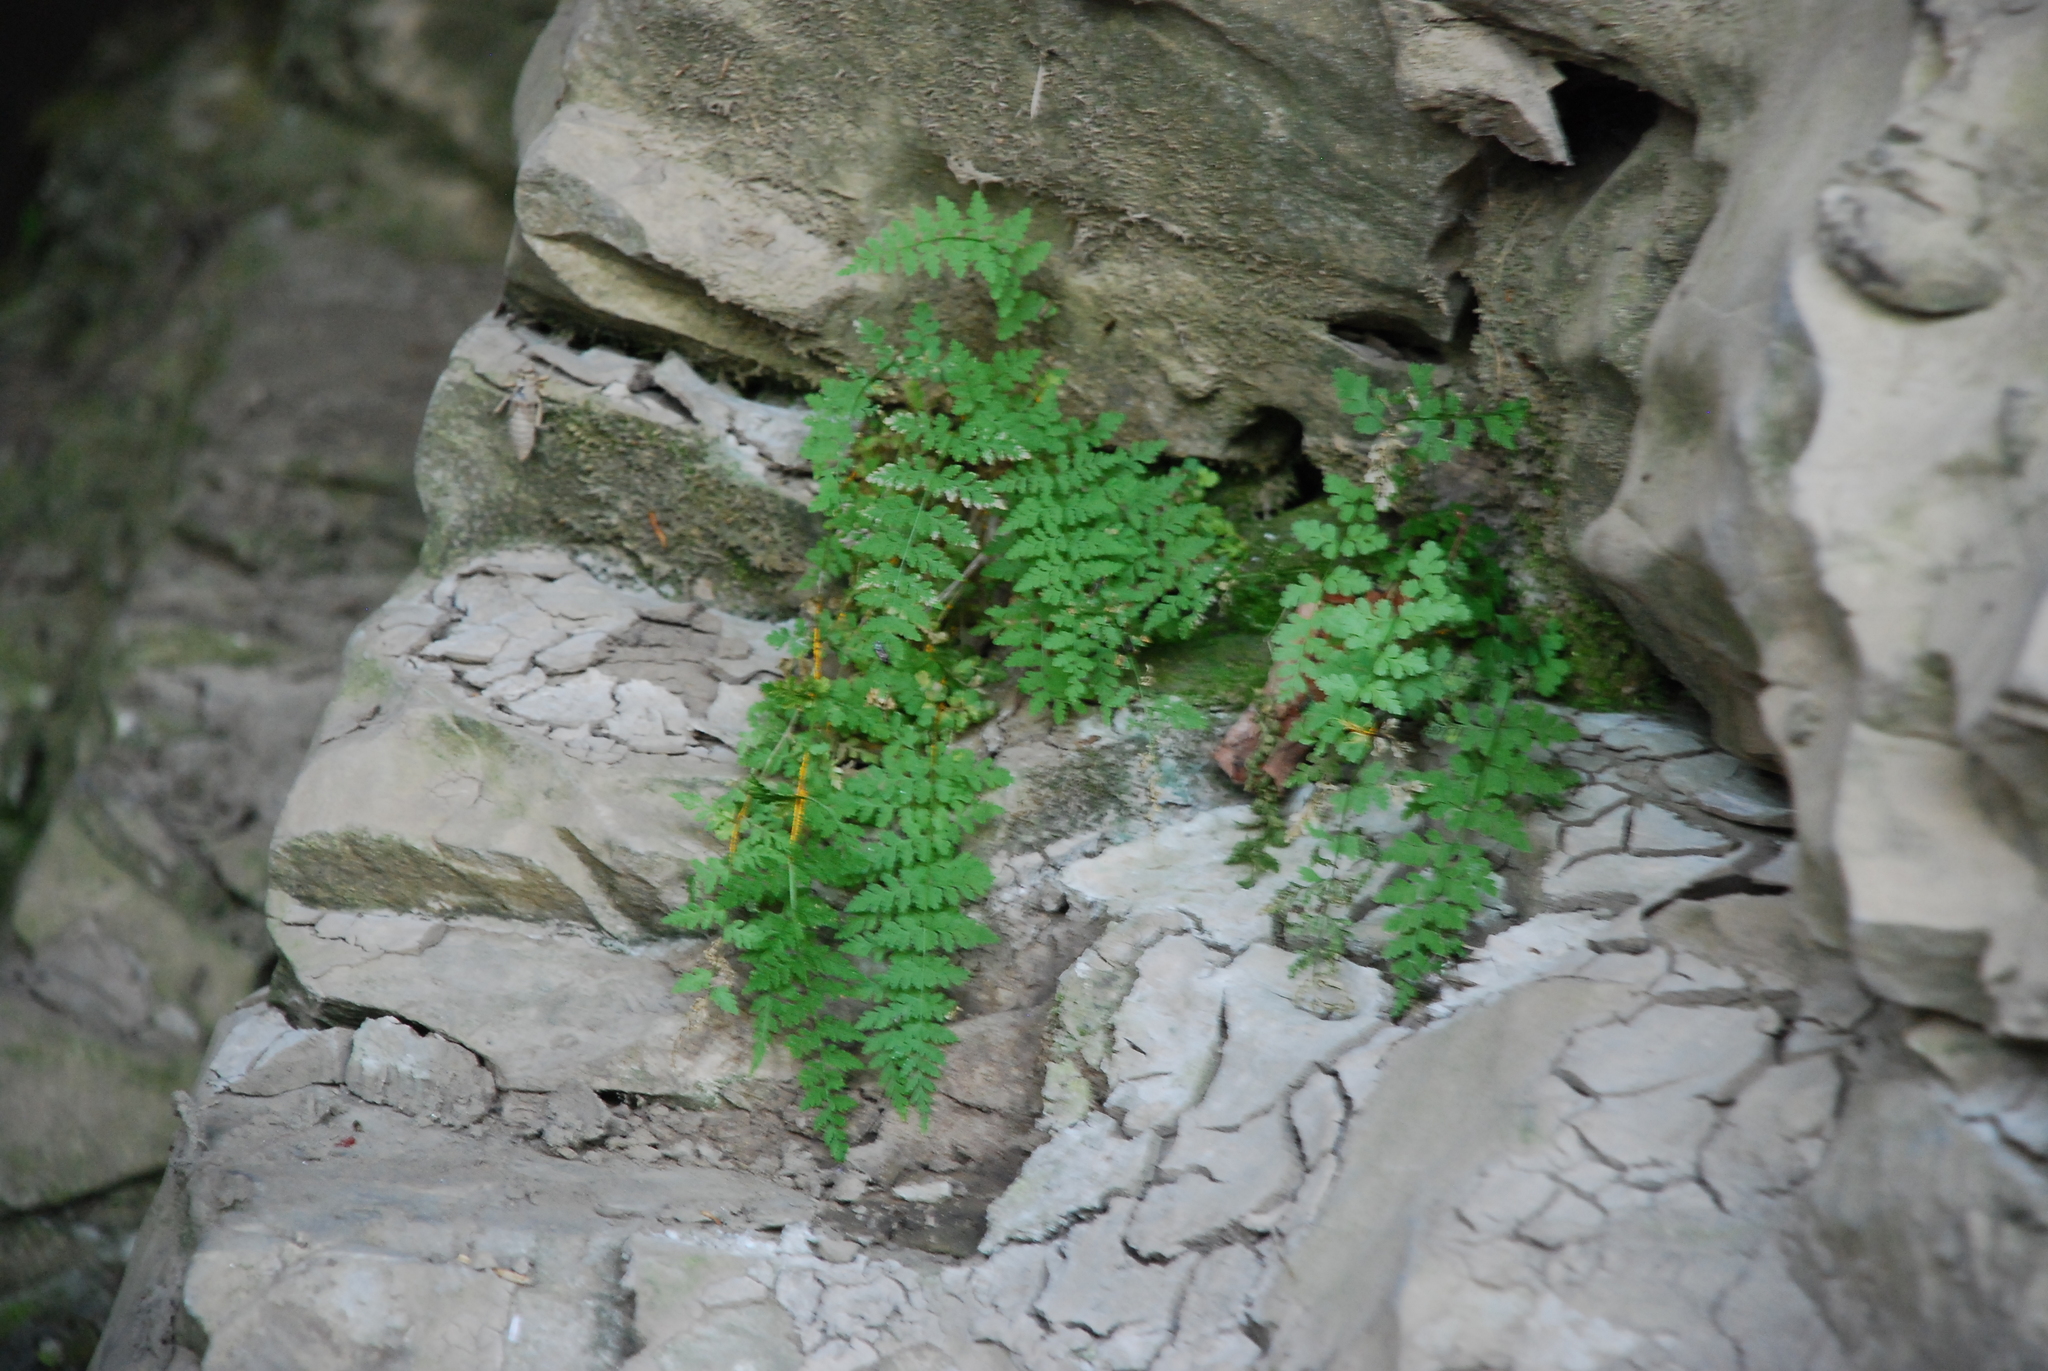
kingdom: Plantae
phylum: Tracheophyta
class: Polypodiopsida
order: Polypodiales
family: Cystopteridaceae
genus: Cystopteris
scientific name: Cystopteris fragilis
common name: Brittle bladder fern
